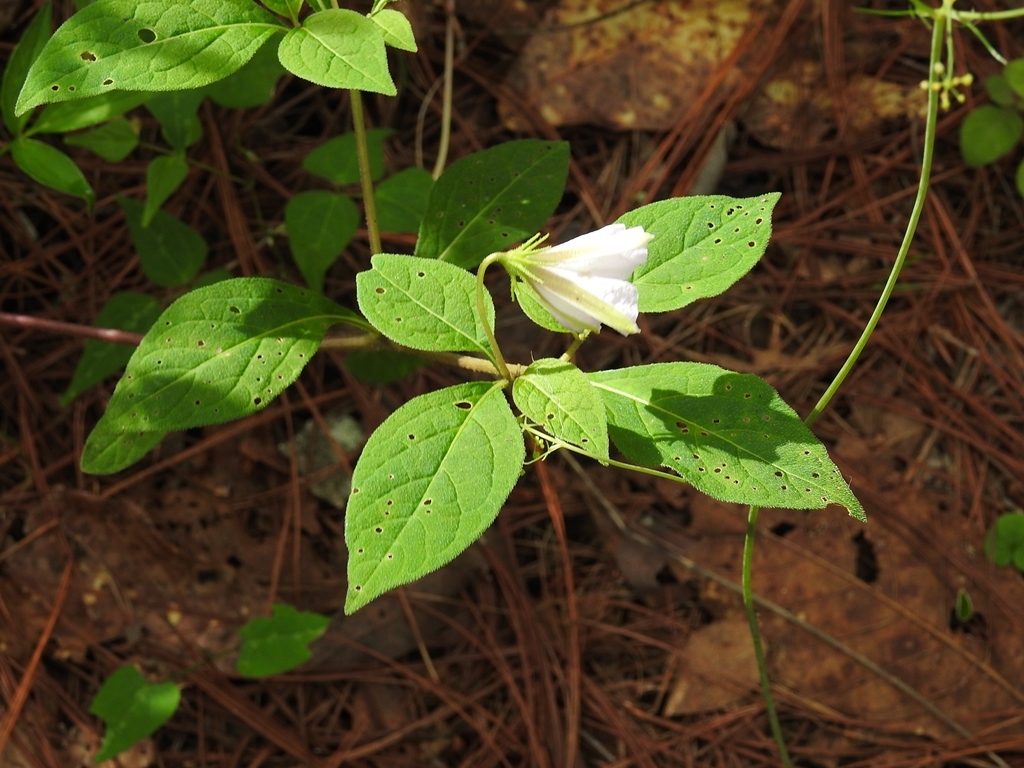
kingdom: Plantae
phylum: Tracheophyta
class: Magnoliopsida
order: Solanales
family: Solanaceae
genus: Lycianthes
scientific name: Lycianthes ciliolata
